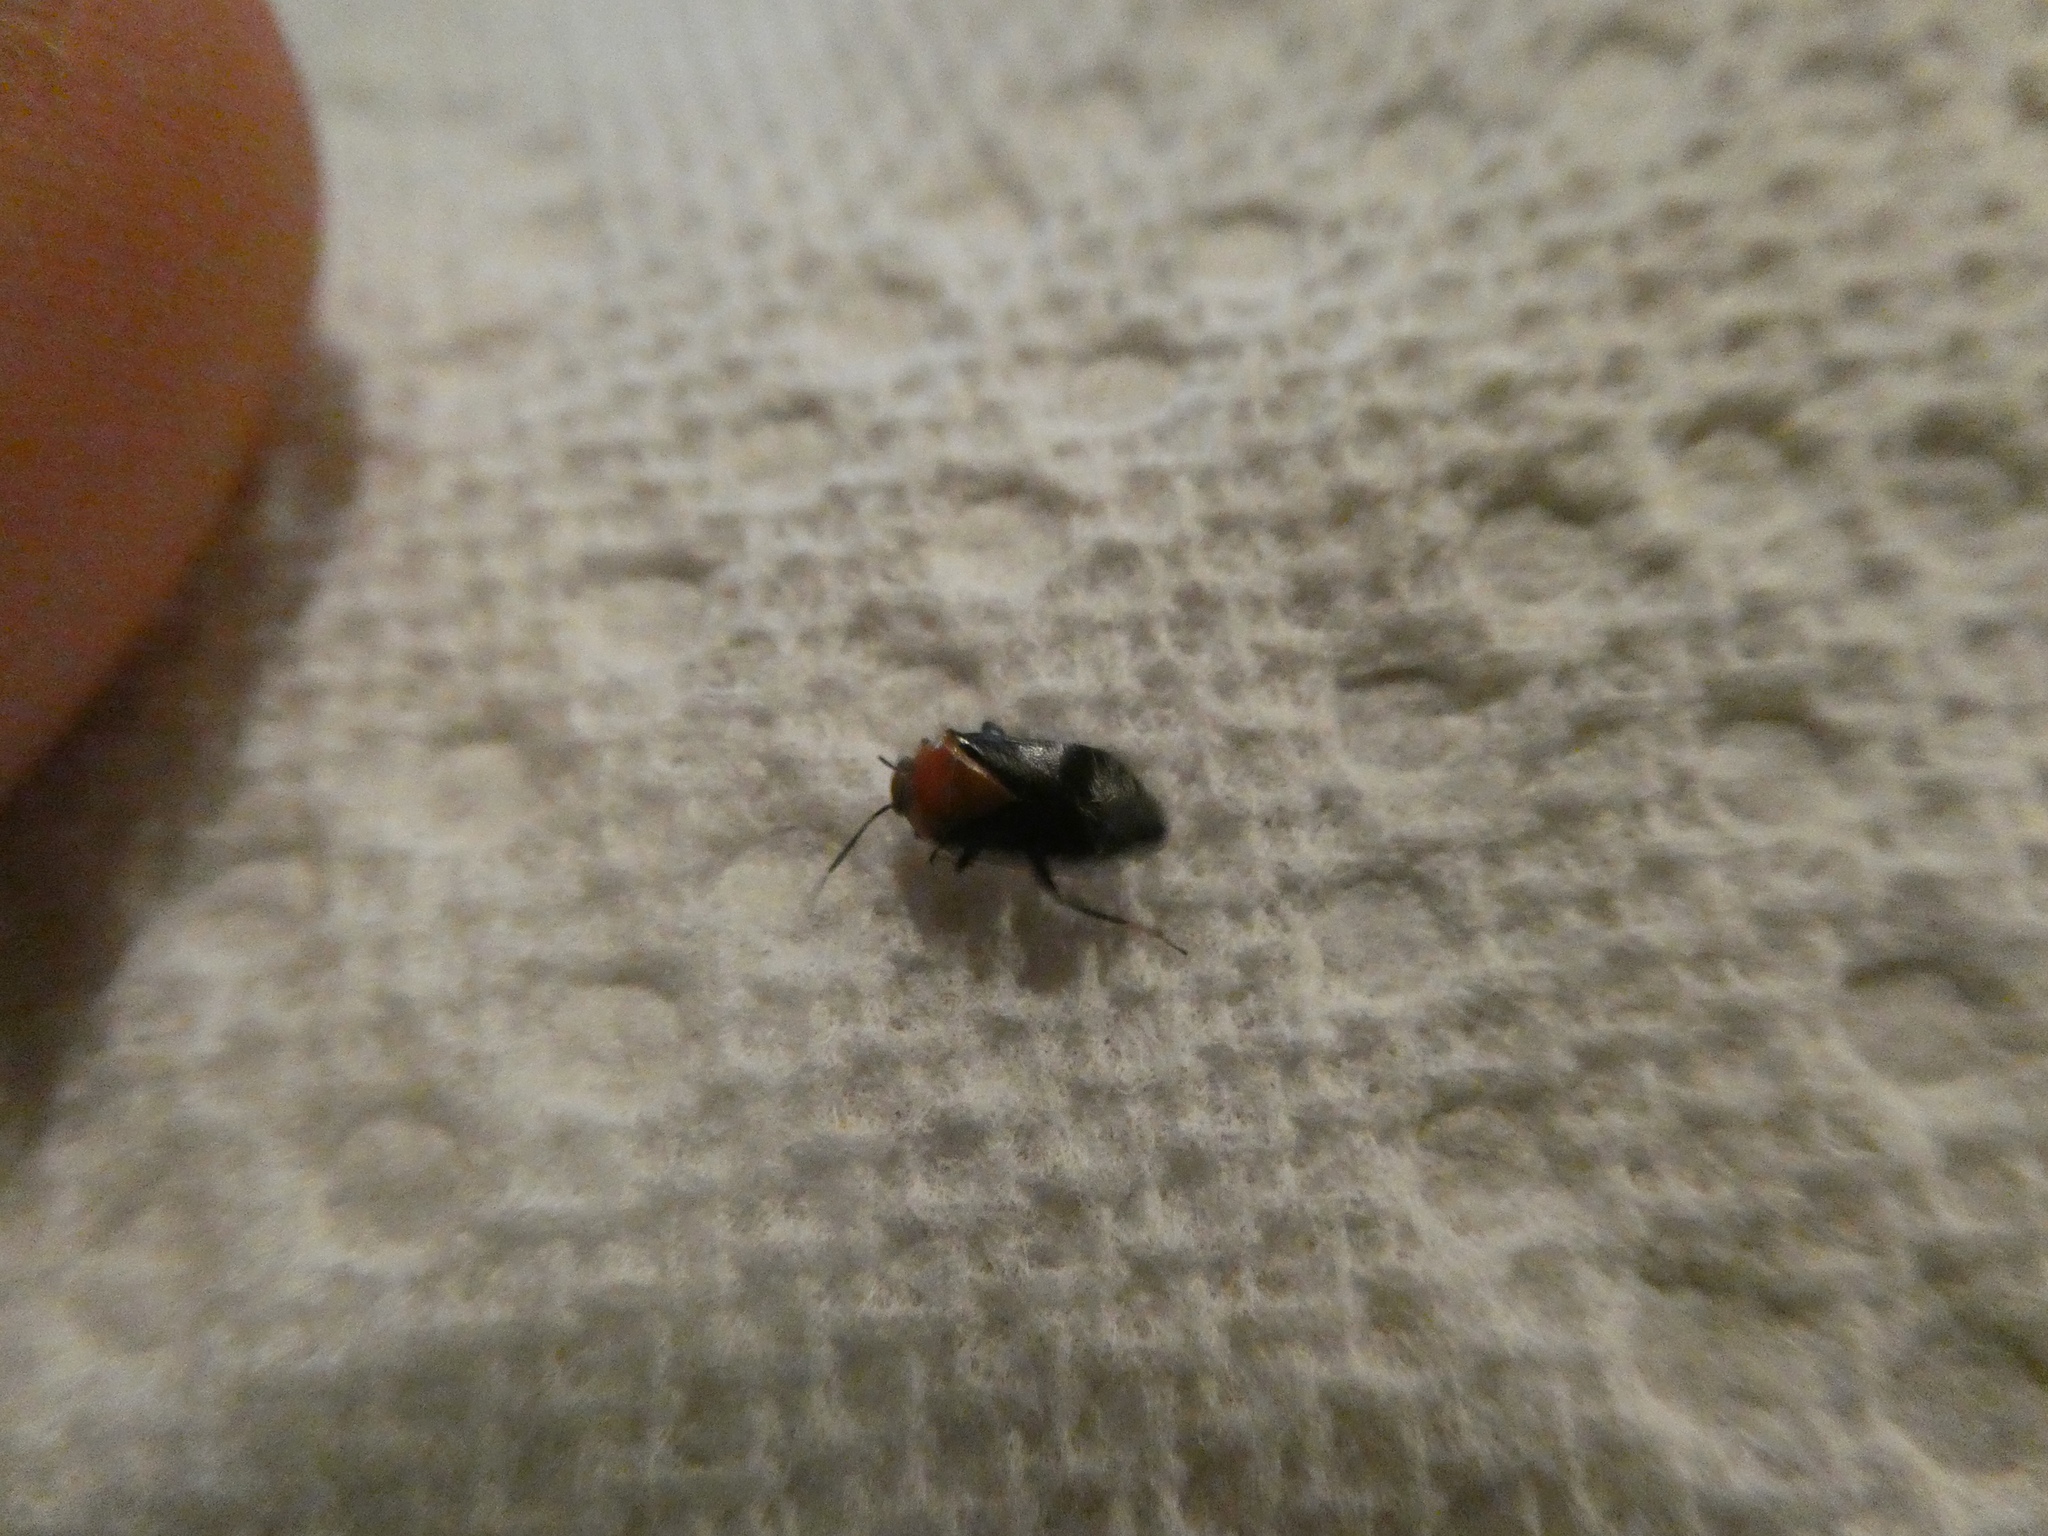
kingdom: Animalia
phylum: Arthropoda
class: Insecta
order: Hemiptera
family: Miridae
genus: Neocapsus
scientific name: Neocapsus cuneatus
